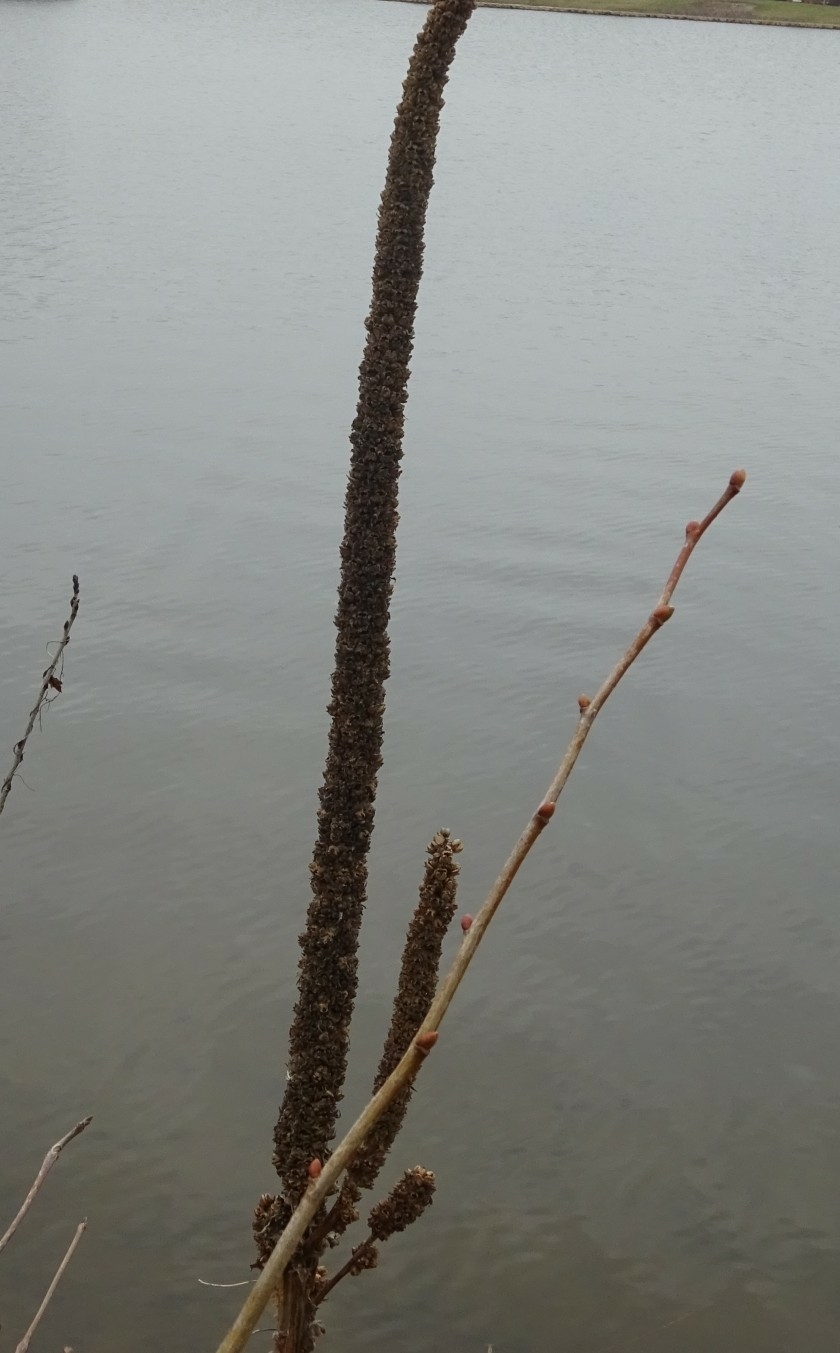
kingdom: Plantae
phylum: Tracheophyta
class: Magnoliopsida
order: Lamiales
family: Scrophulariaceae
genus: Verbascum
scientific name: Verbascum thapsus
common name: Common mullein
